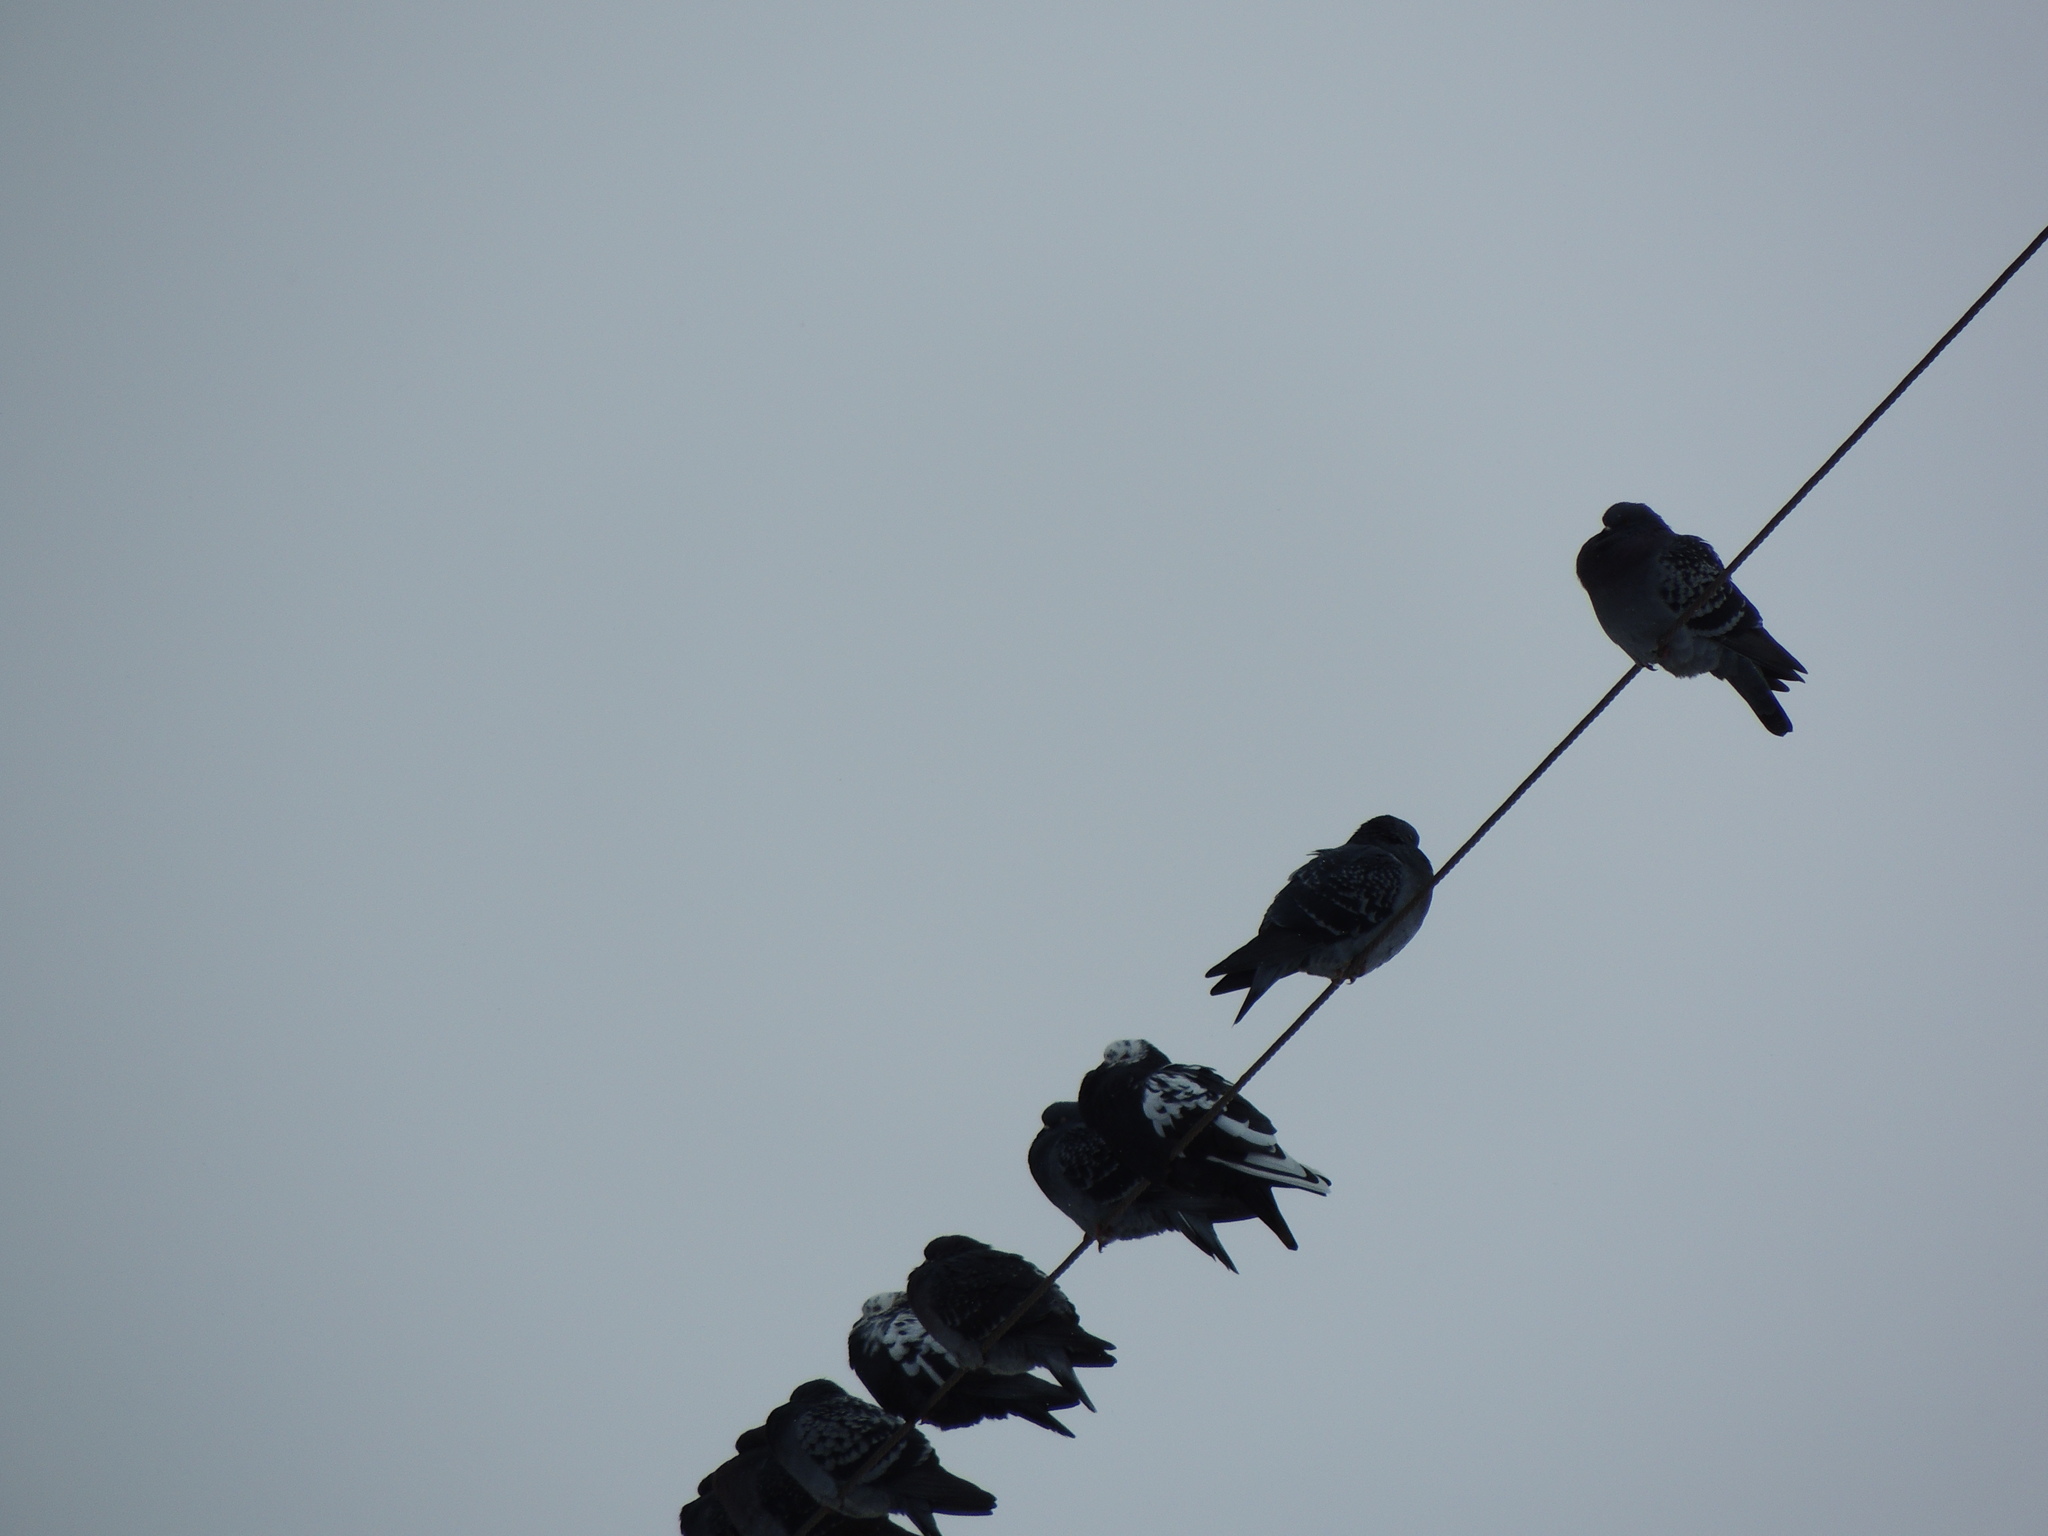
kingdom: Animalia
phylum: Chordata
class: Aves
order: Columbiformes
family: Columbidae
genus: Columba
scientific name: Columba livia
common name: Rock pigeon
